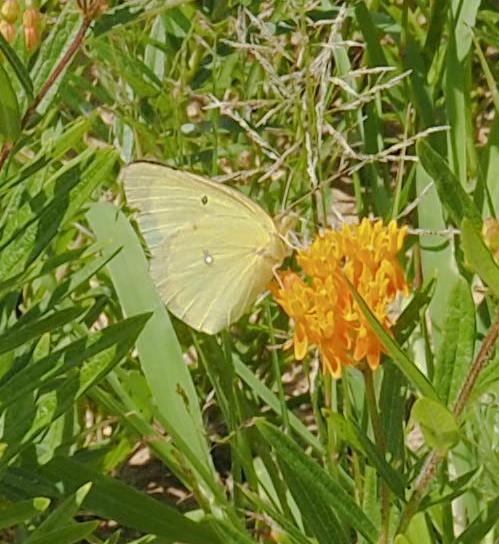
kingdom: Animalia
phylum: Arthropoda
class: Insecta
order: Lepidoptera
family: Pieridae
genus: Colias
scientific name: Colias philodice
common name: Clouded sulphur
